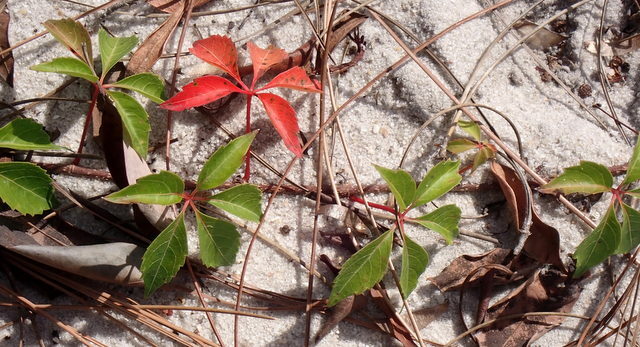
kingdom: Plantae
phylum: Tracheophyta
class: Magnoliopsida
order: Vitales
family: Vitaceae
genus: Parthenocissus
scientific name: Parthenocissus quinquefolia
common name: Virginia-creeper
